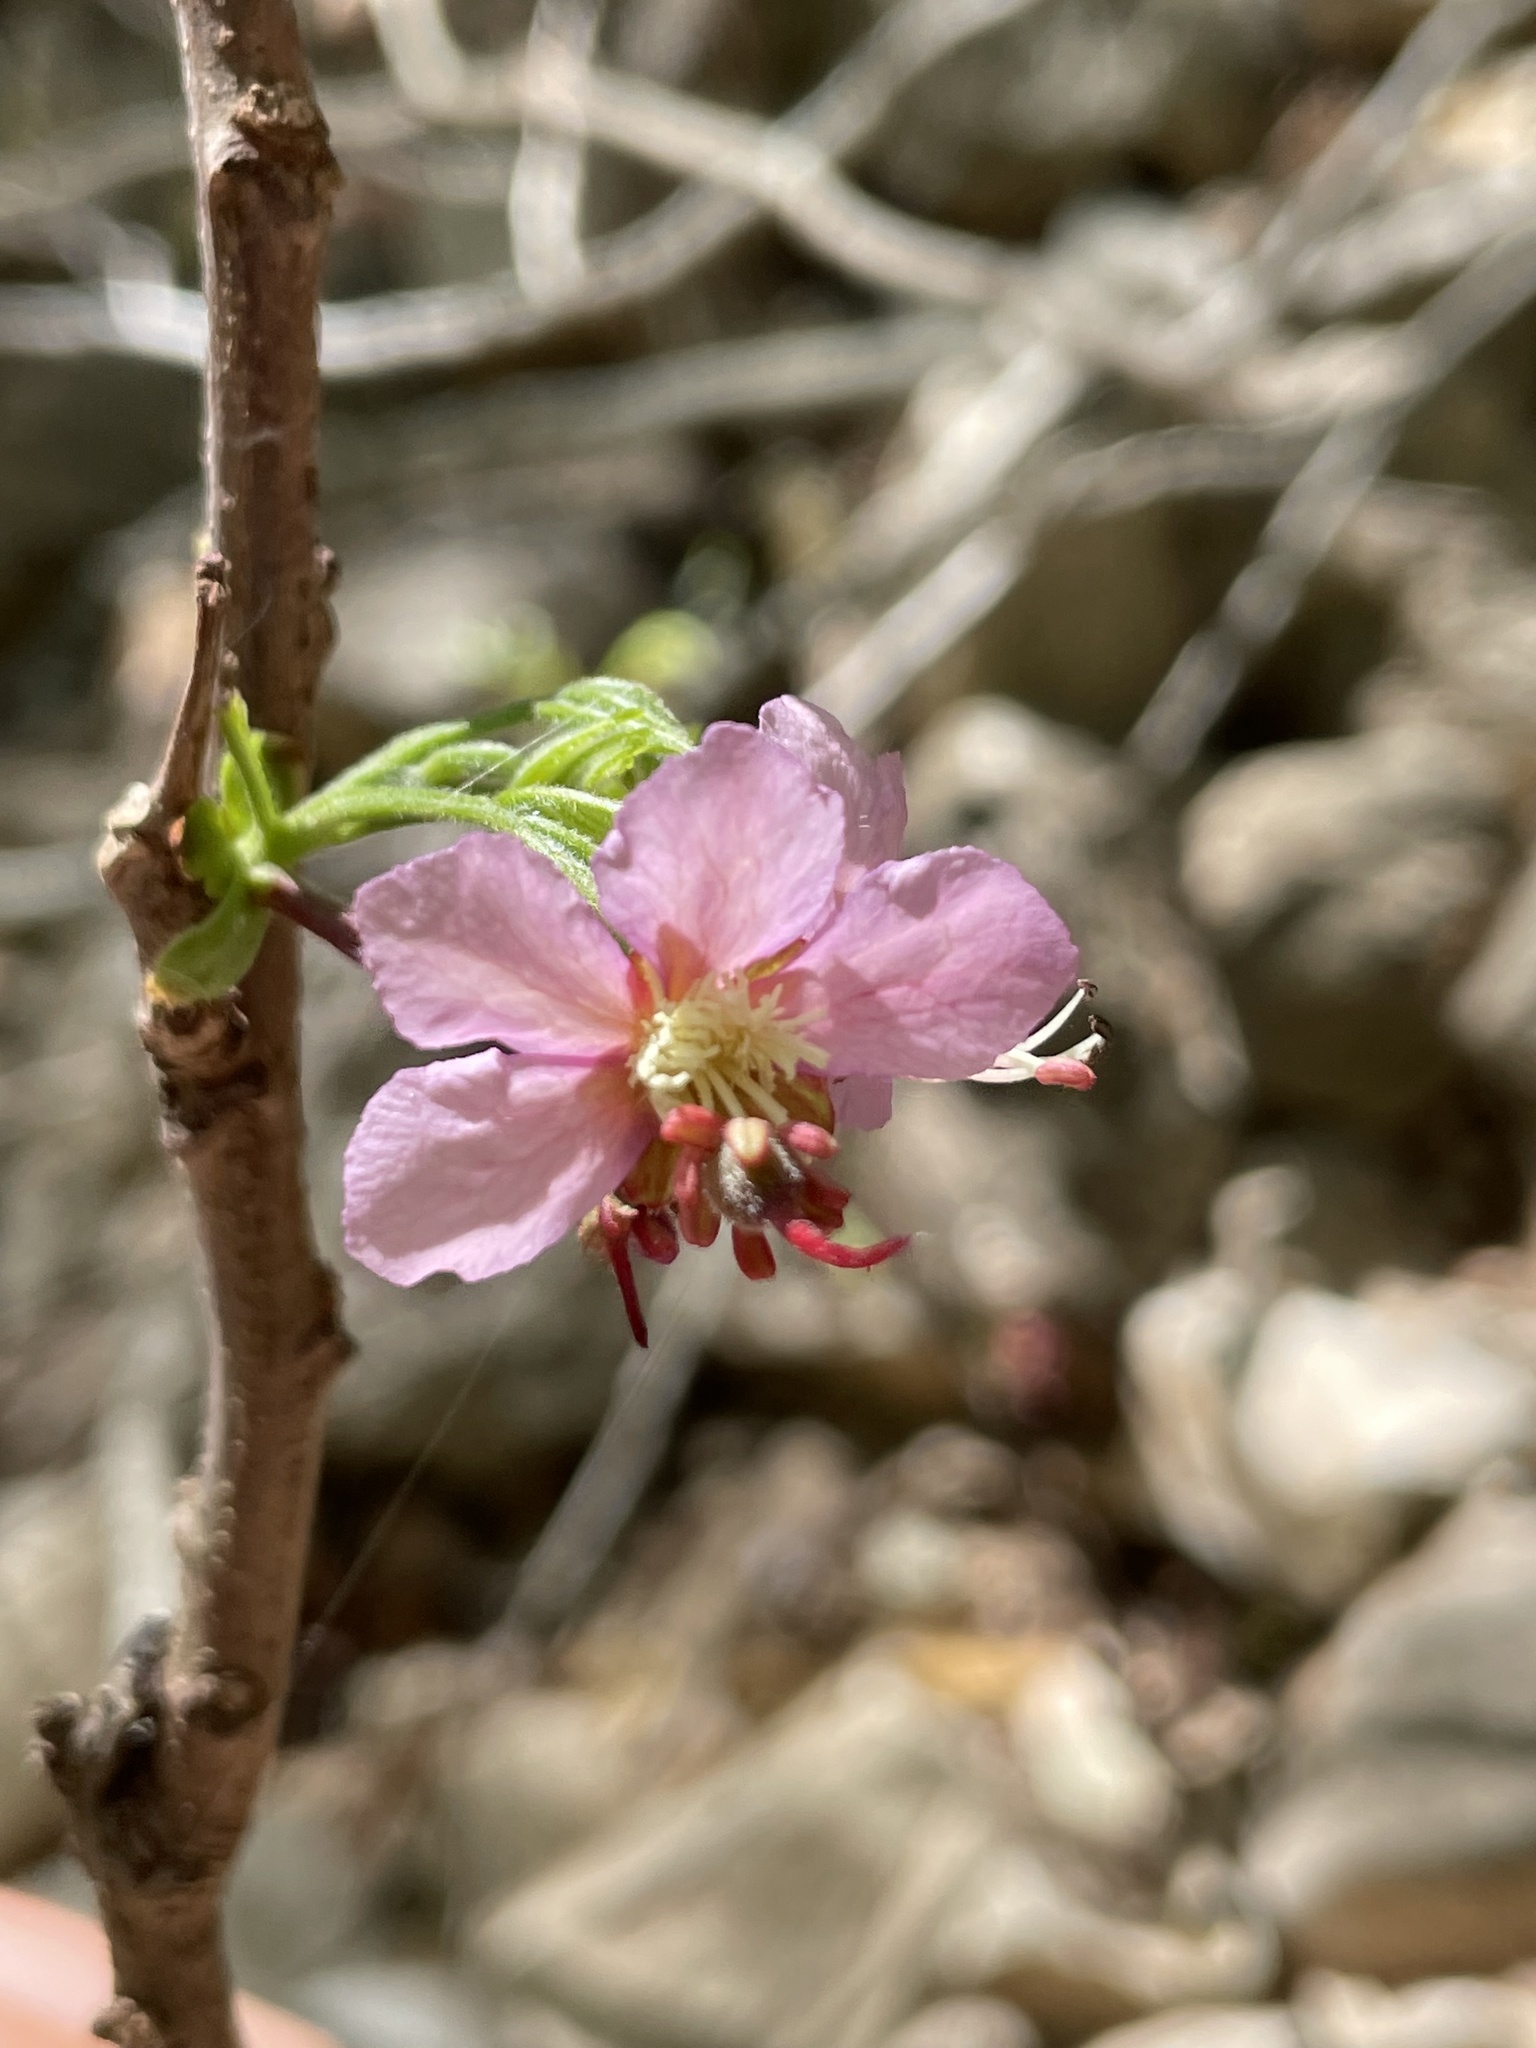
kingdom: Plantae
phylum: Tracheophyta
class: Magnoliopsida
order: Sapindales
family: Sapindaceae
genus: Ungnadia
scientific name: Ungnadia speciosa
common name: Texas-buckeye
